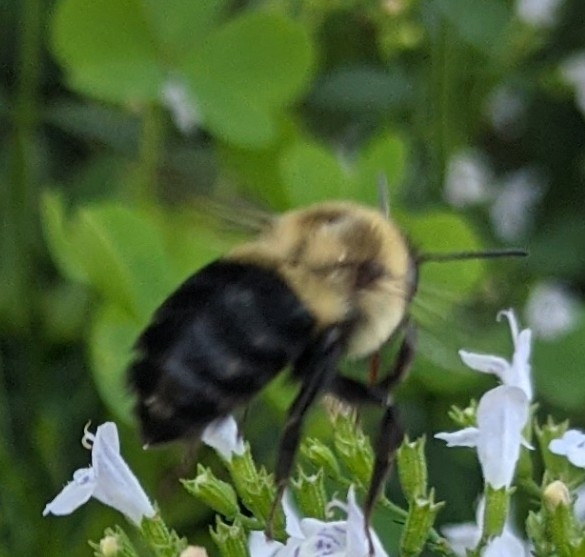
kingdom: Animalia
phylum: Arthropoda
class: Insecta
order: Hymenoptera
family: Apidae
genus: Bombus
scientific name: Bombus impatiens
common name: Common eastern bumble bee
